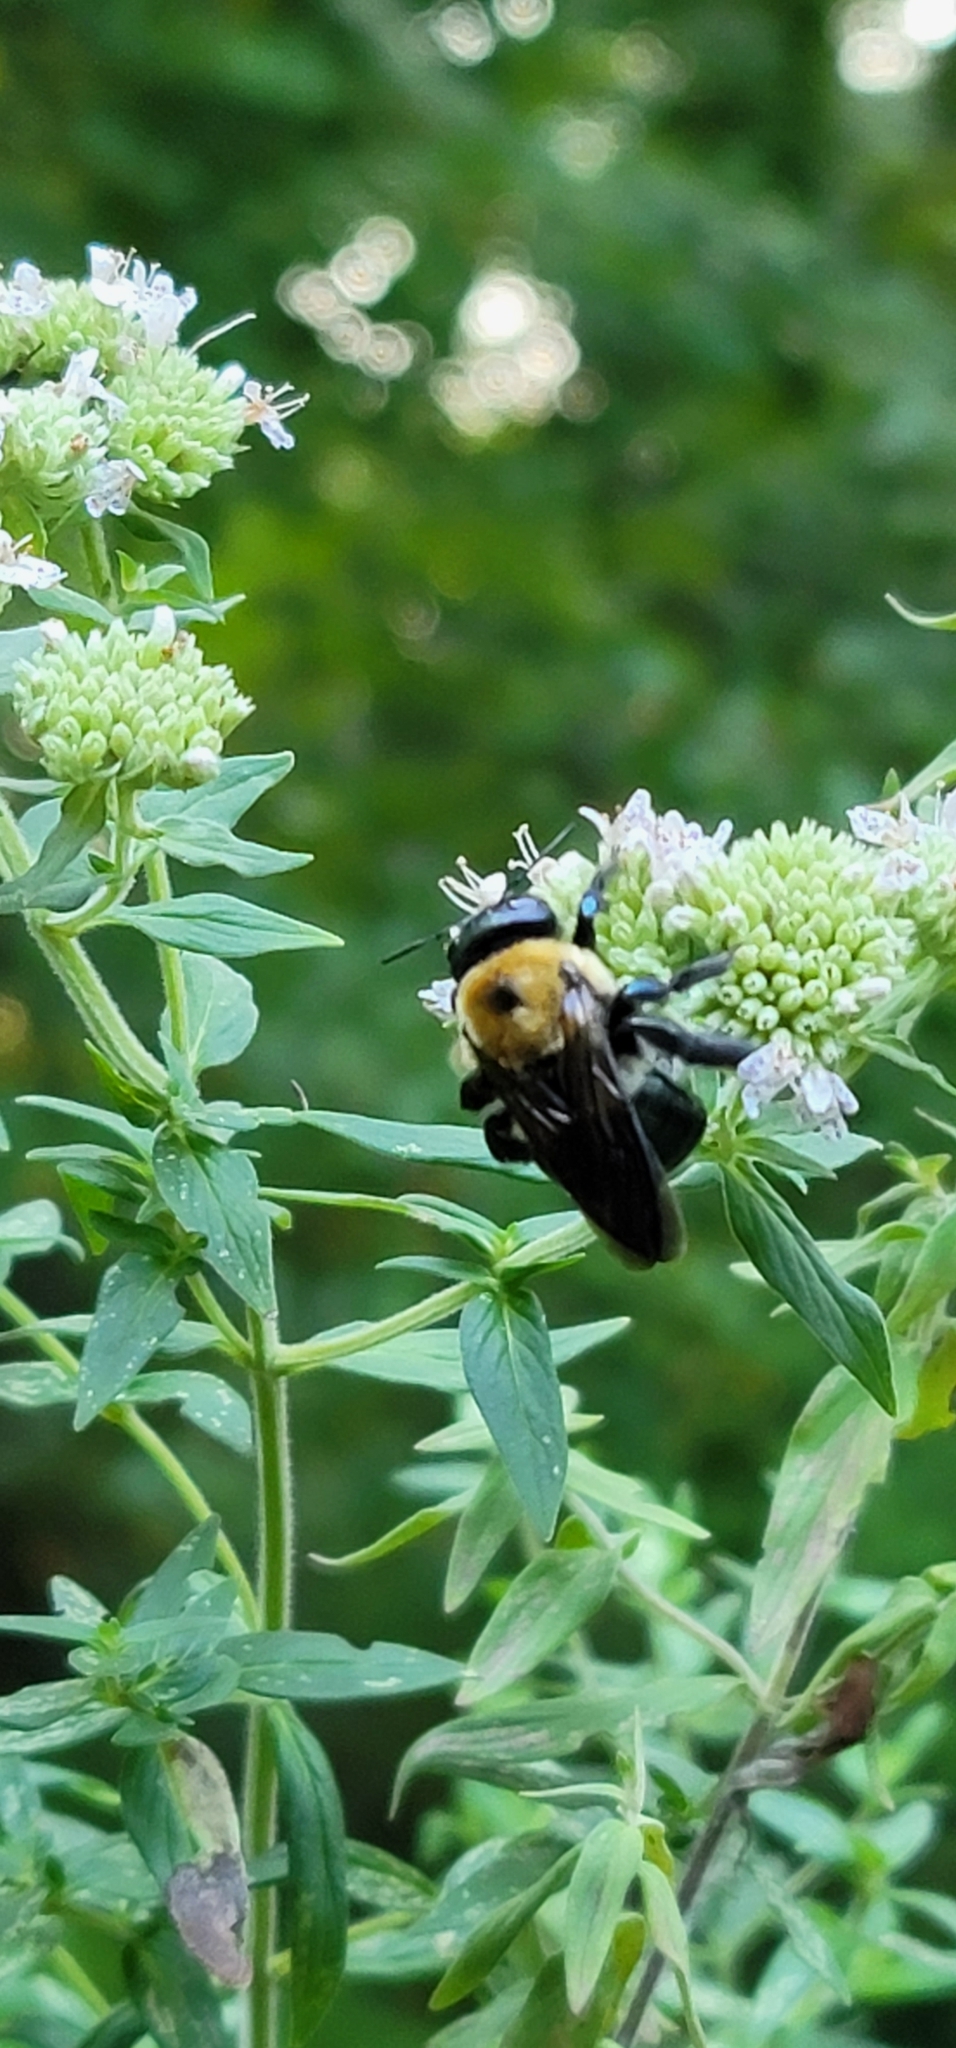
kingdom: Animalia
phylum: Arthropoda
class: Insecta
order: Hymenoptera
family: Apidae
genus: Xylocopa
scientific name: Xylocopa virginica
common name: Carpenter bee
